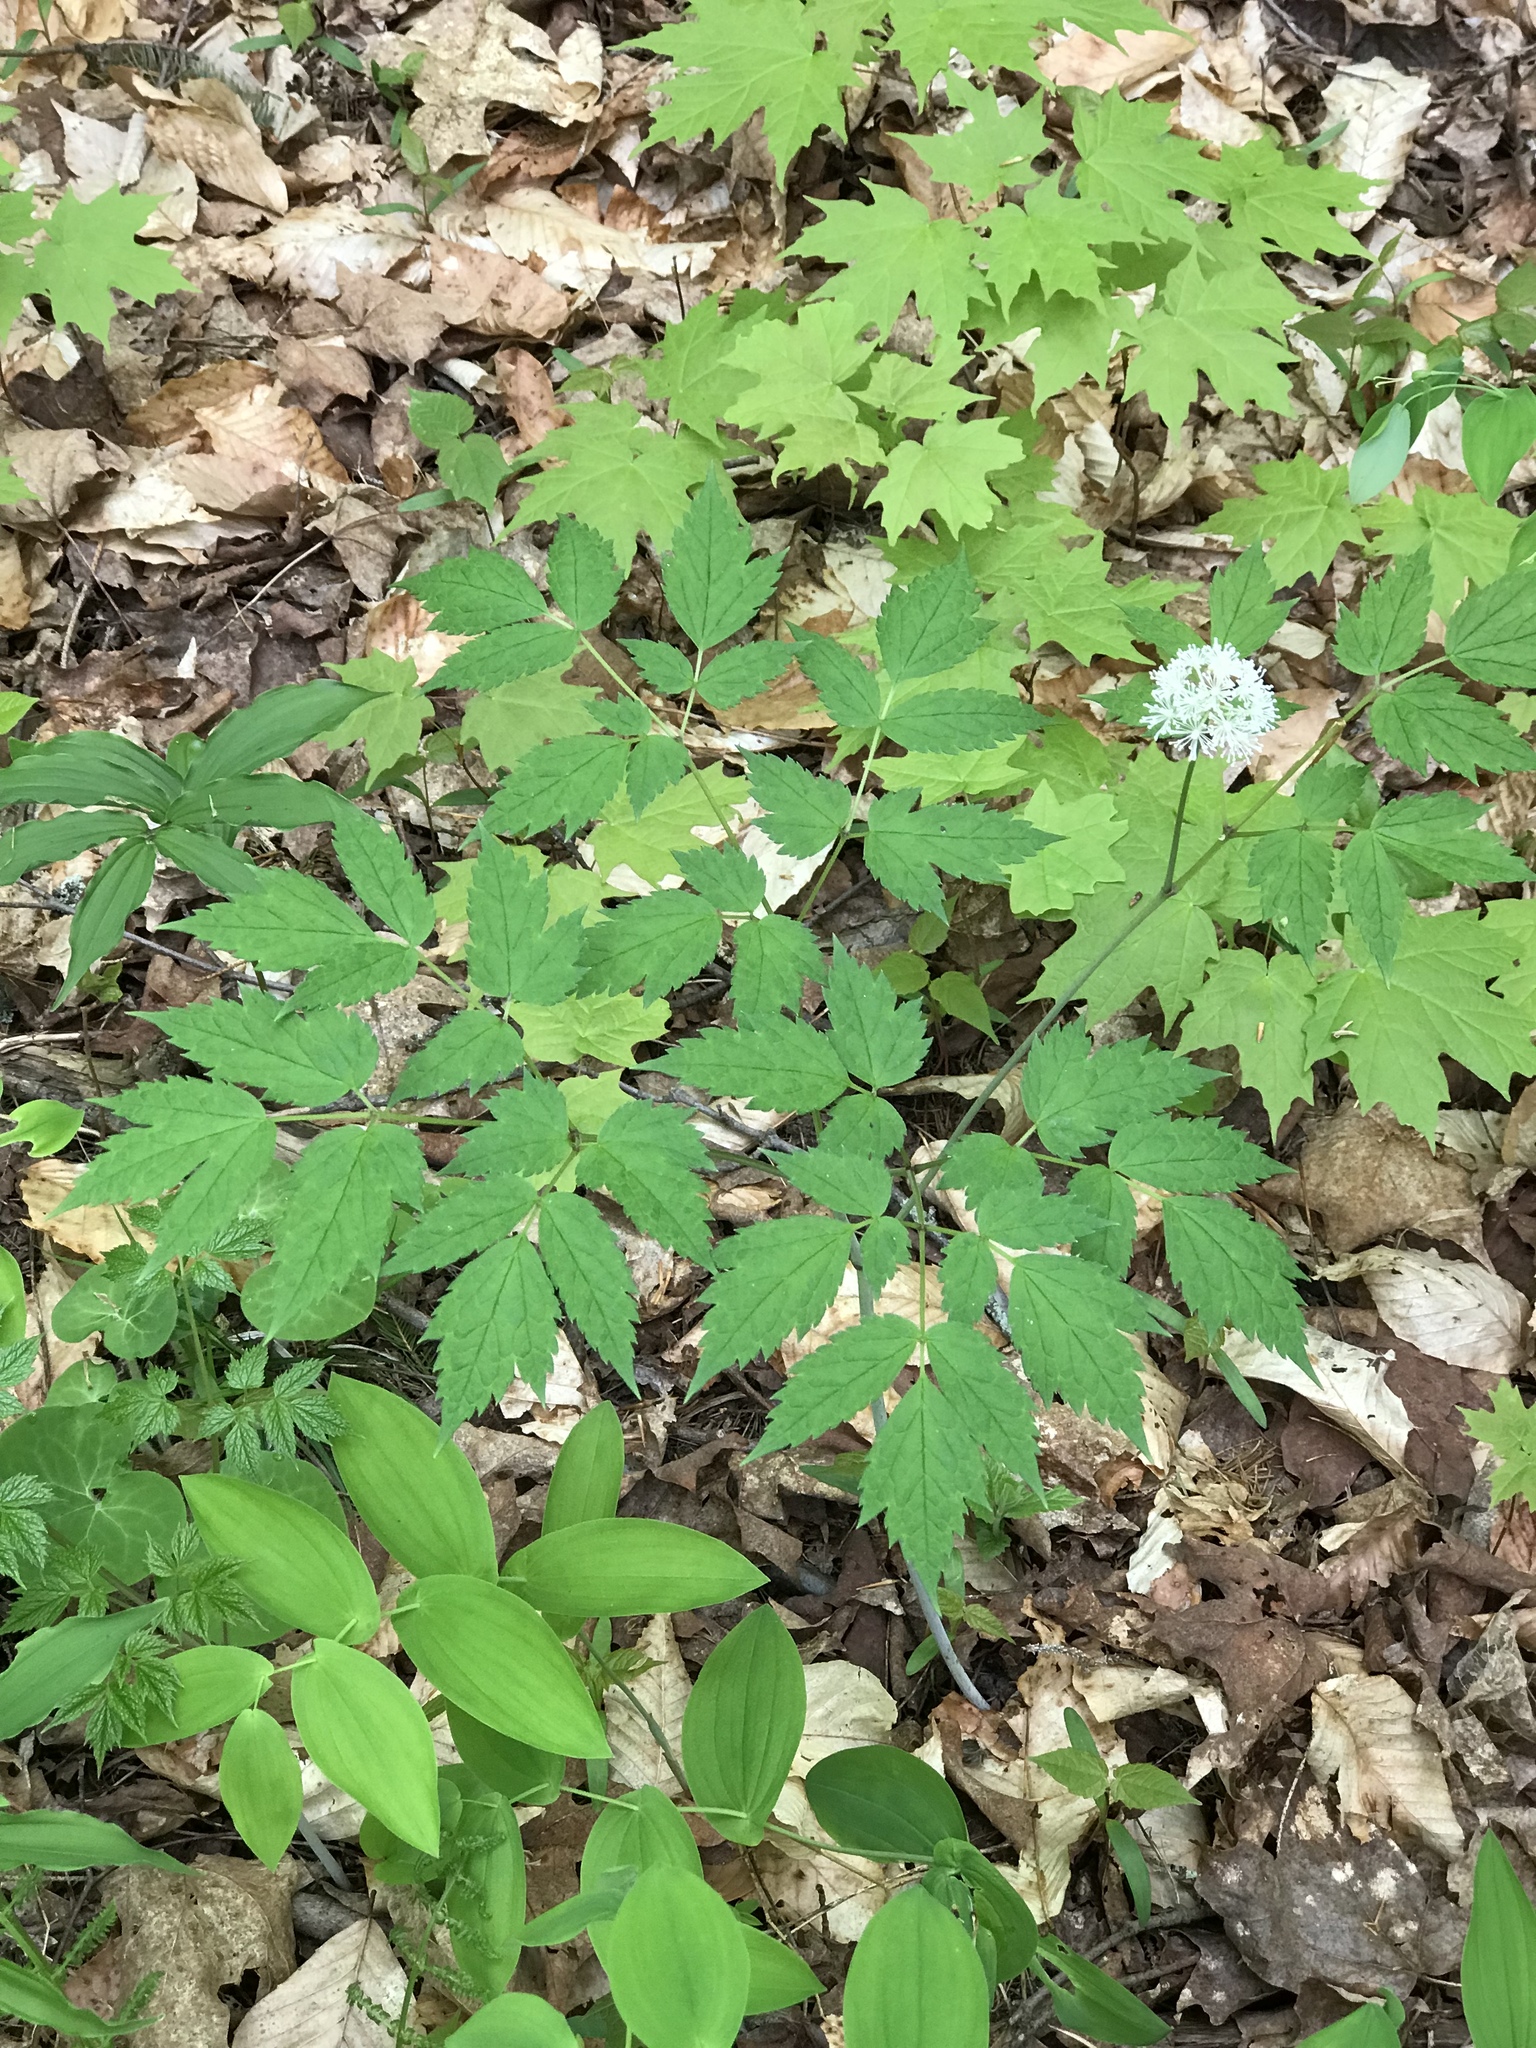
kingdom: Plantae
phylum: Tracheophyta
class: Magnoliopsida
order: Ranunculales
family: Ranunculaceae
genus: Actaea
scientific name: Actaea rubra
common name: Red baneberry
